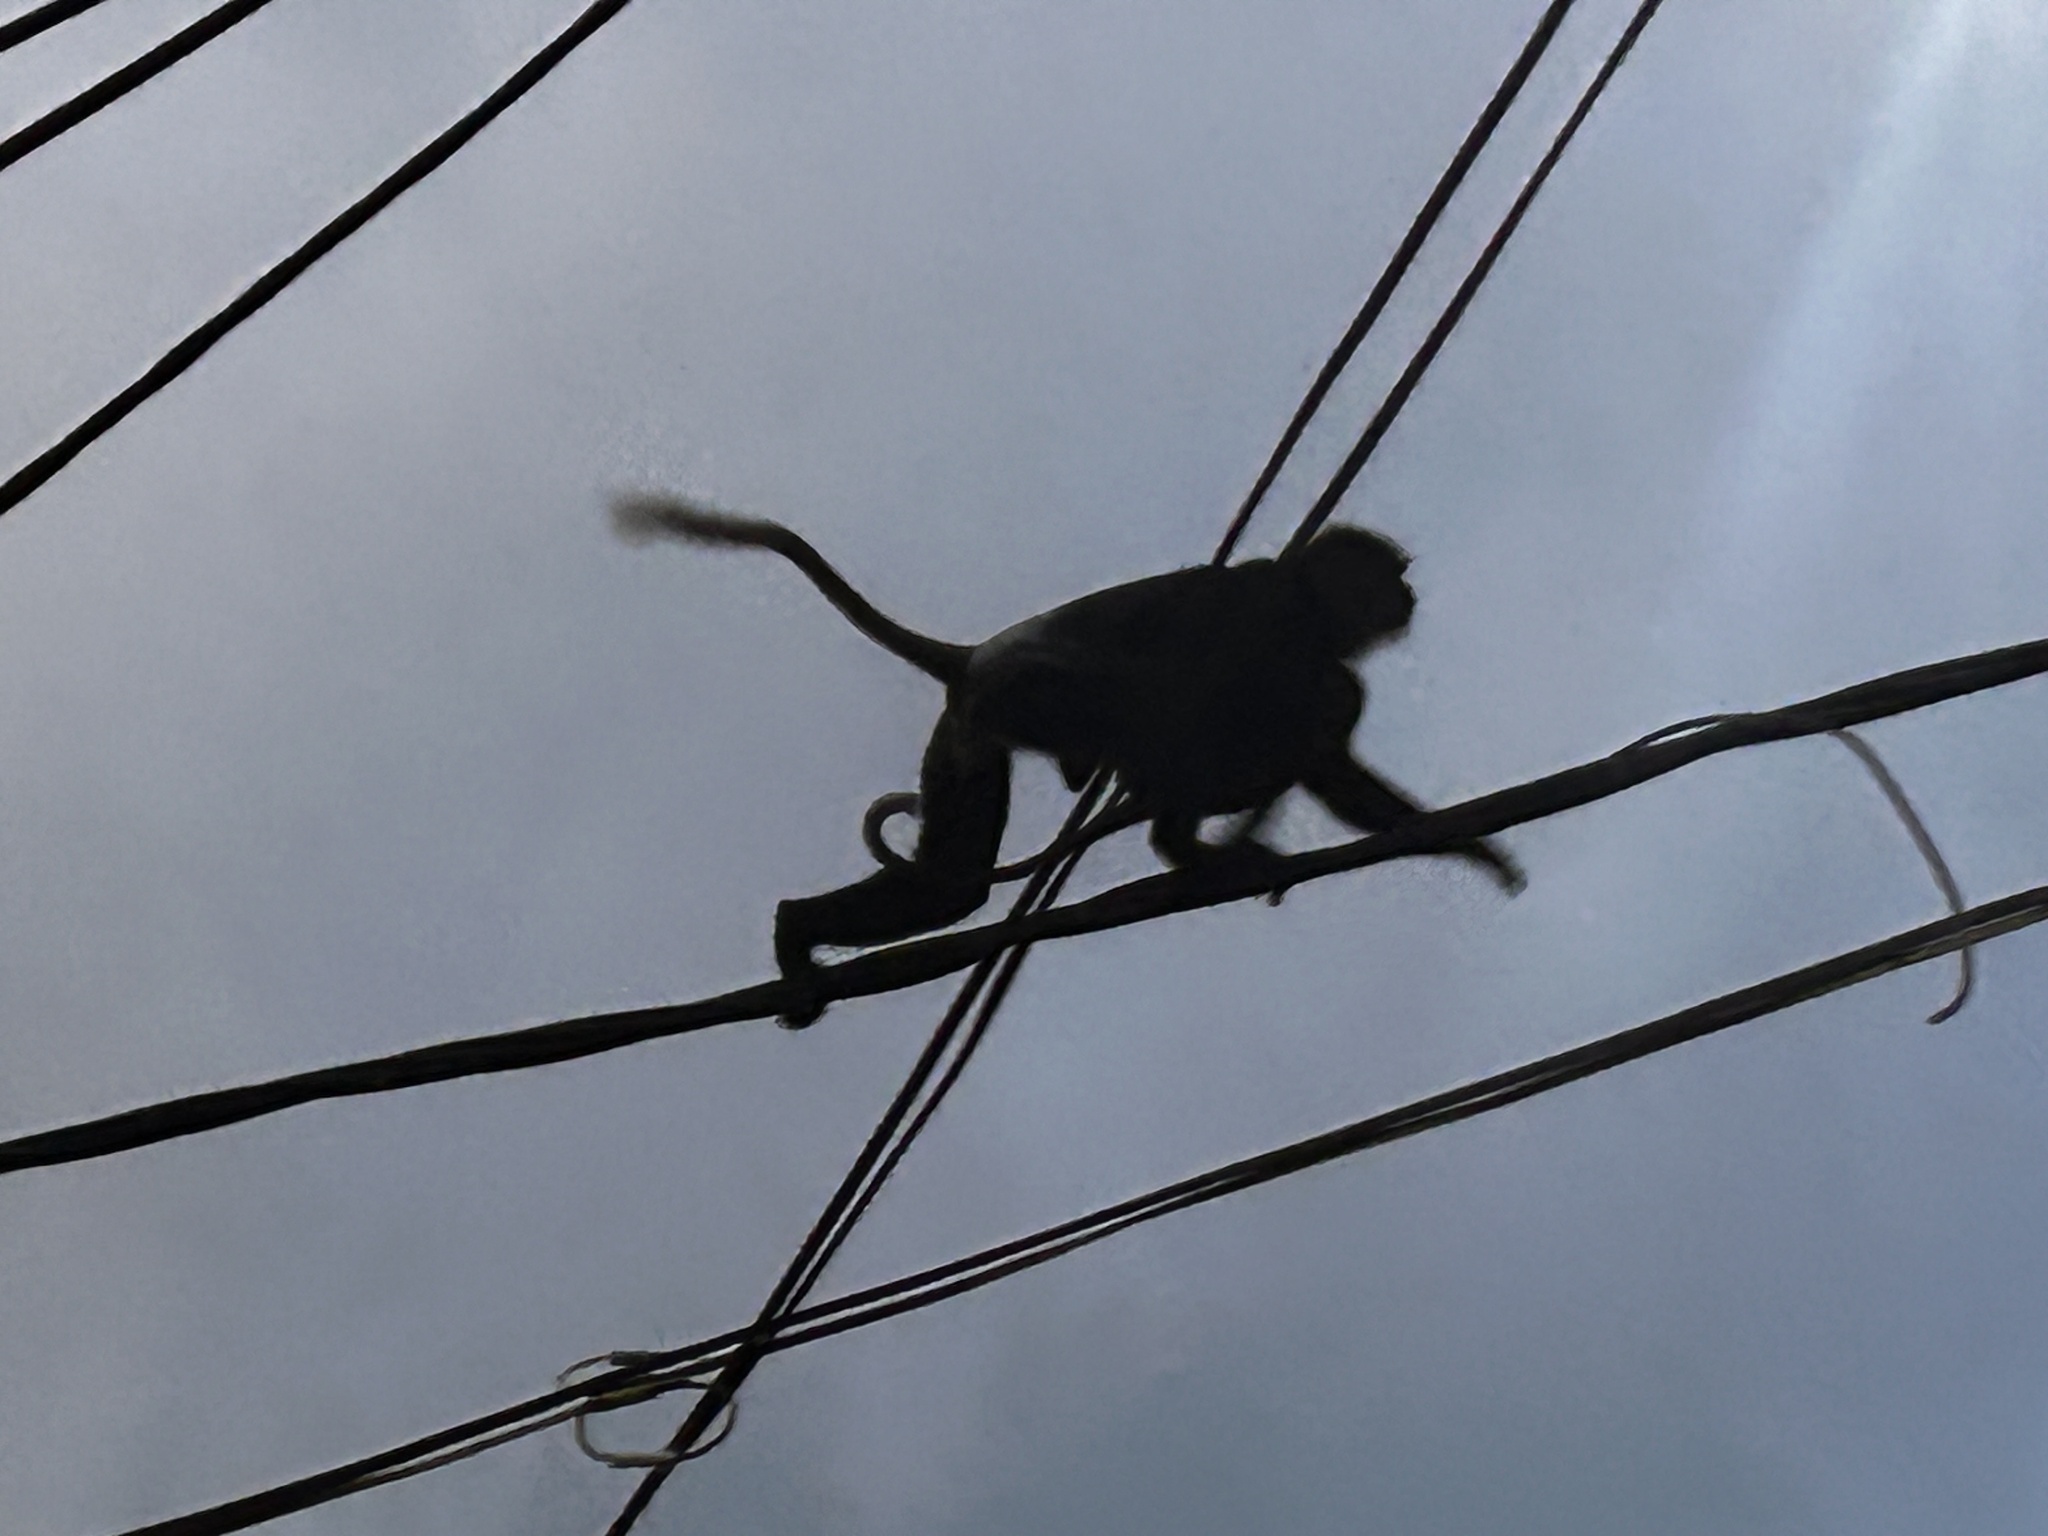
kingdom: Animalia
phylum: Chordata
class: Mammalia
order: Primates
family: Cercopithecidae
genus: Semnopithecus
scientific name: Semnopithecus vetulus
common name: Purple-faced langur
